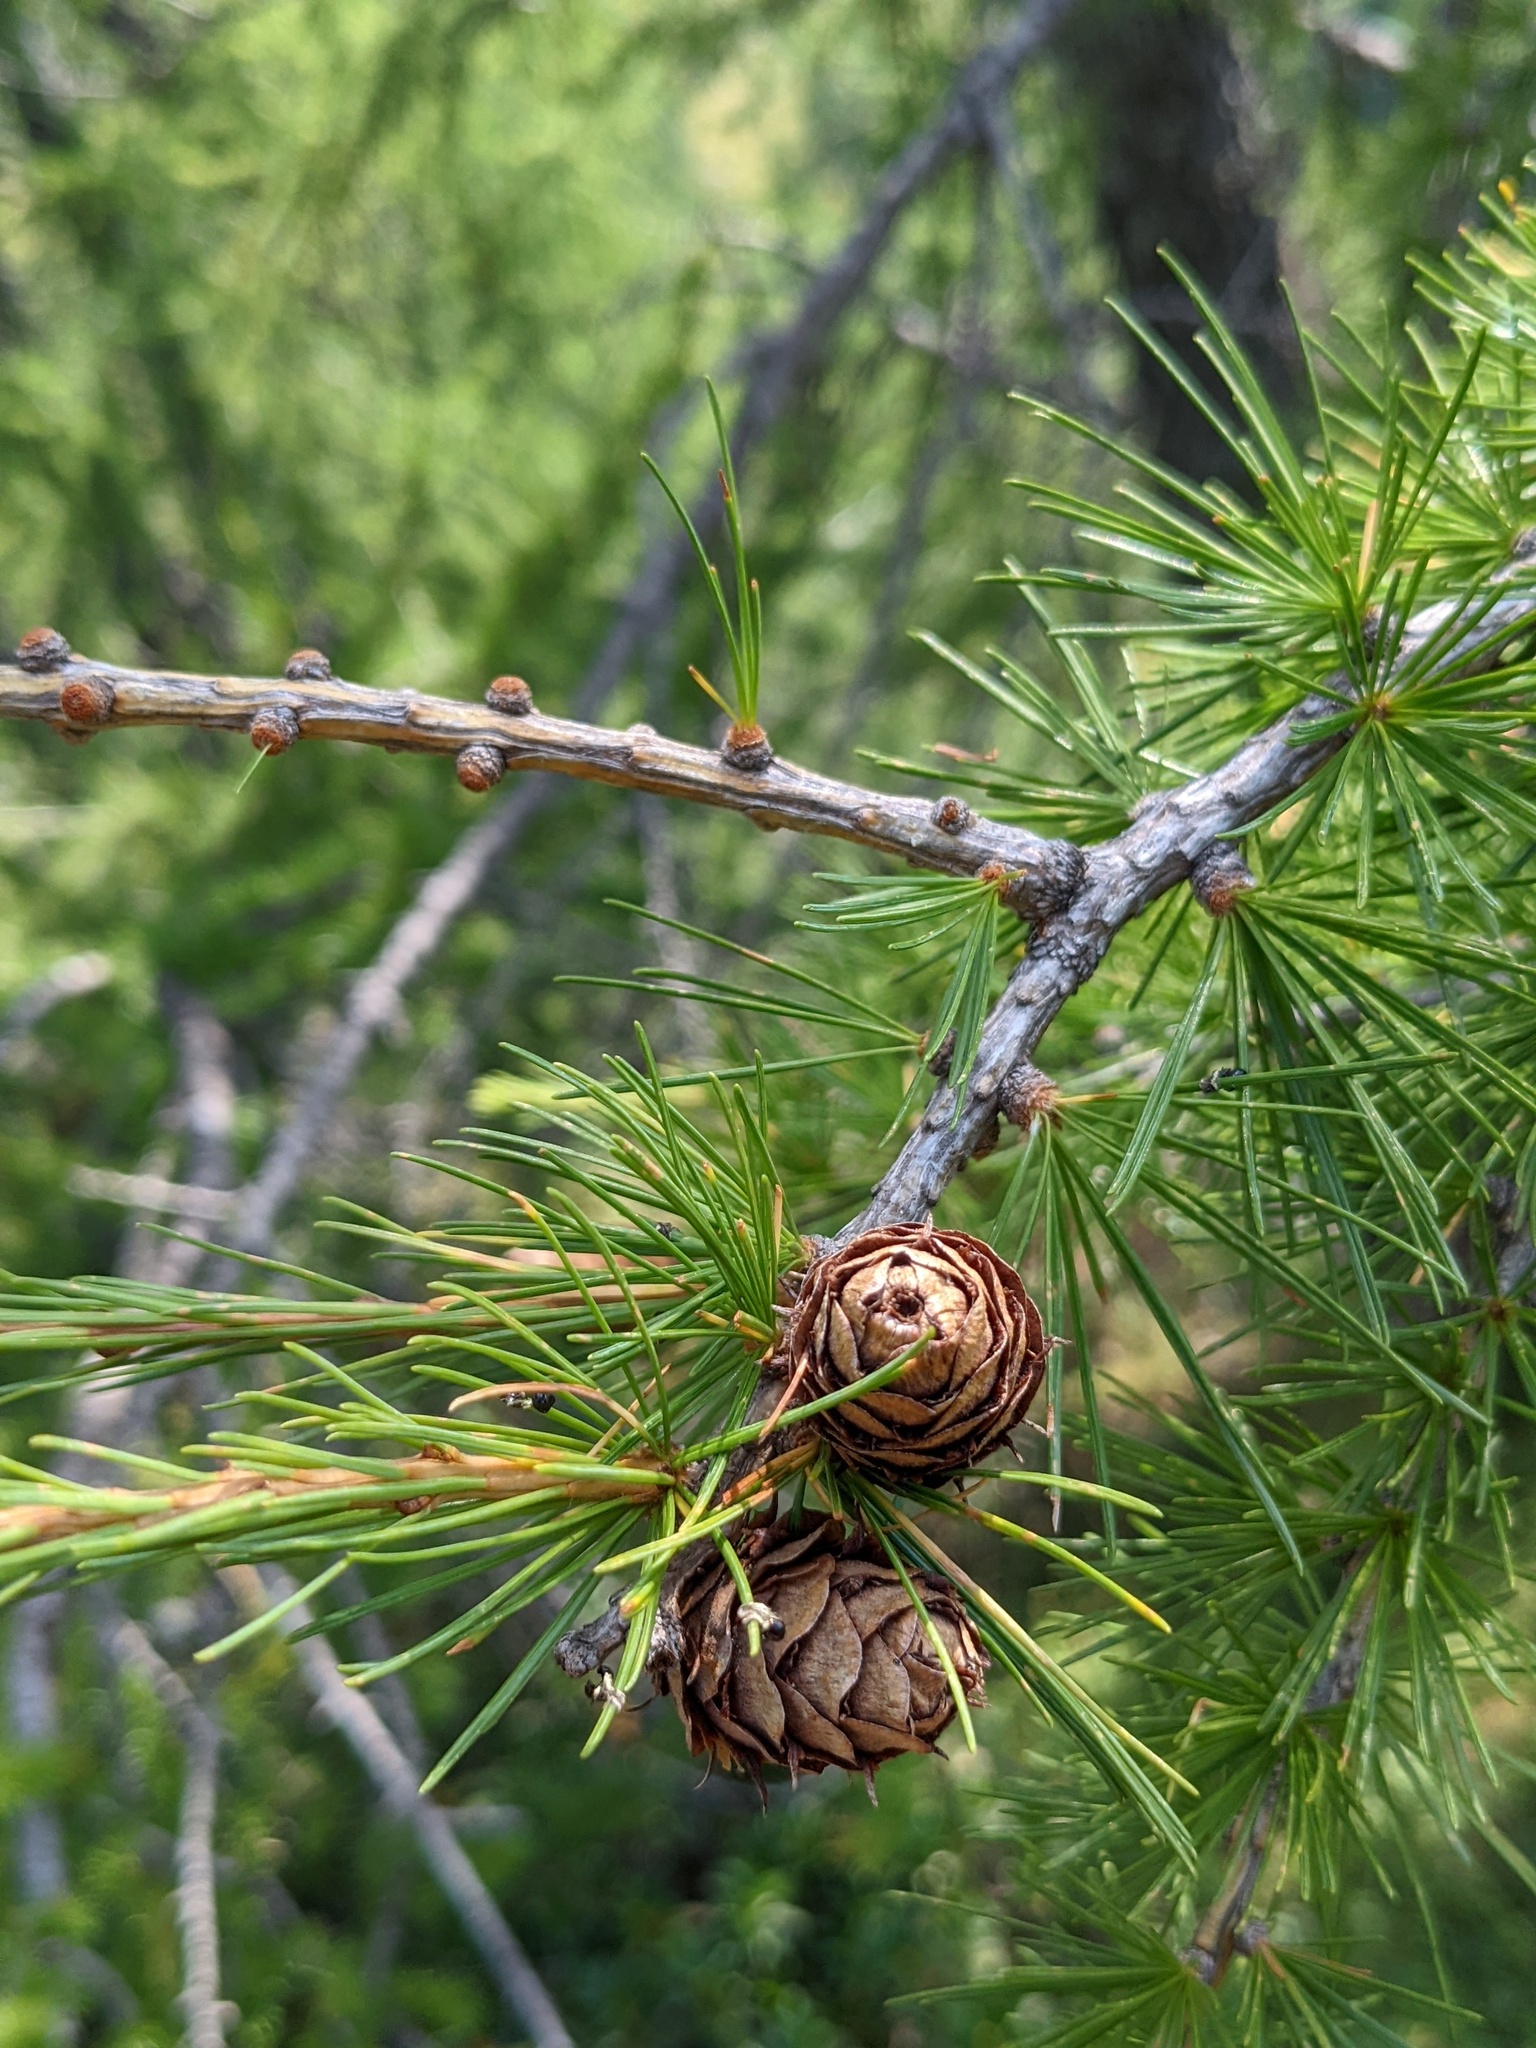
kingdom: Plantae
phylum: Tracheophyta
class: Pinopsida
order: Pinales
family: Pinaceae
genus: Larix
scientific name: Larix decidua
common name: European larch
